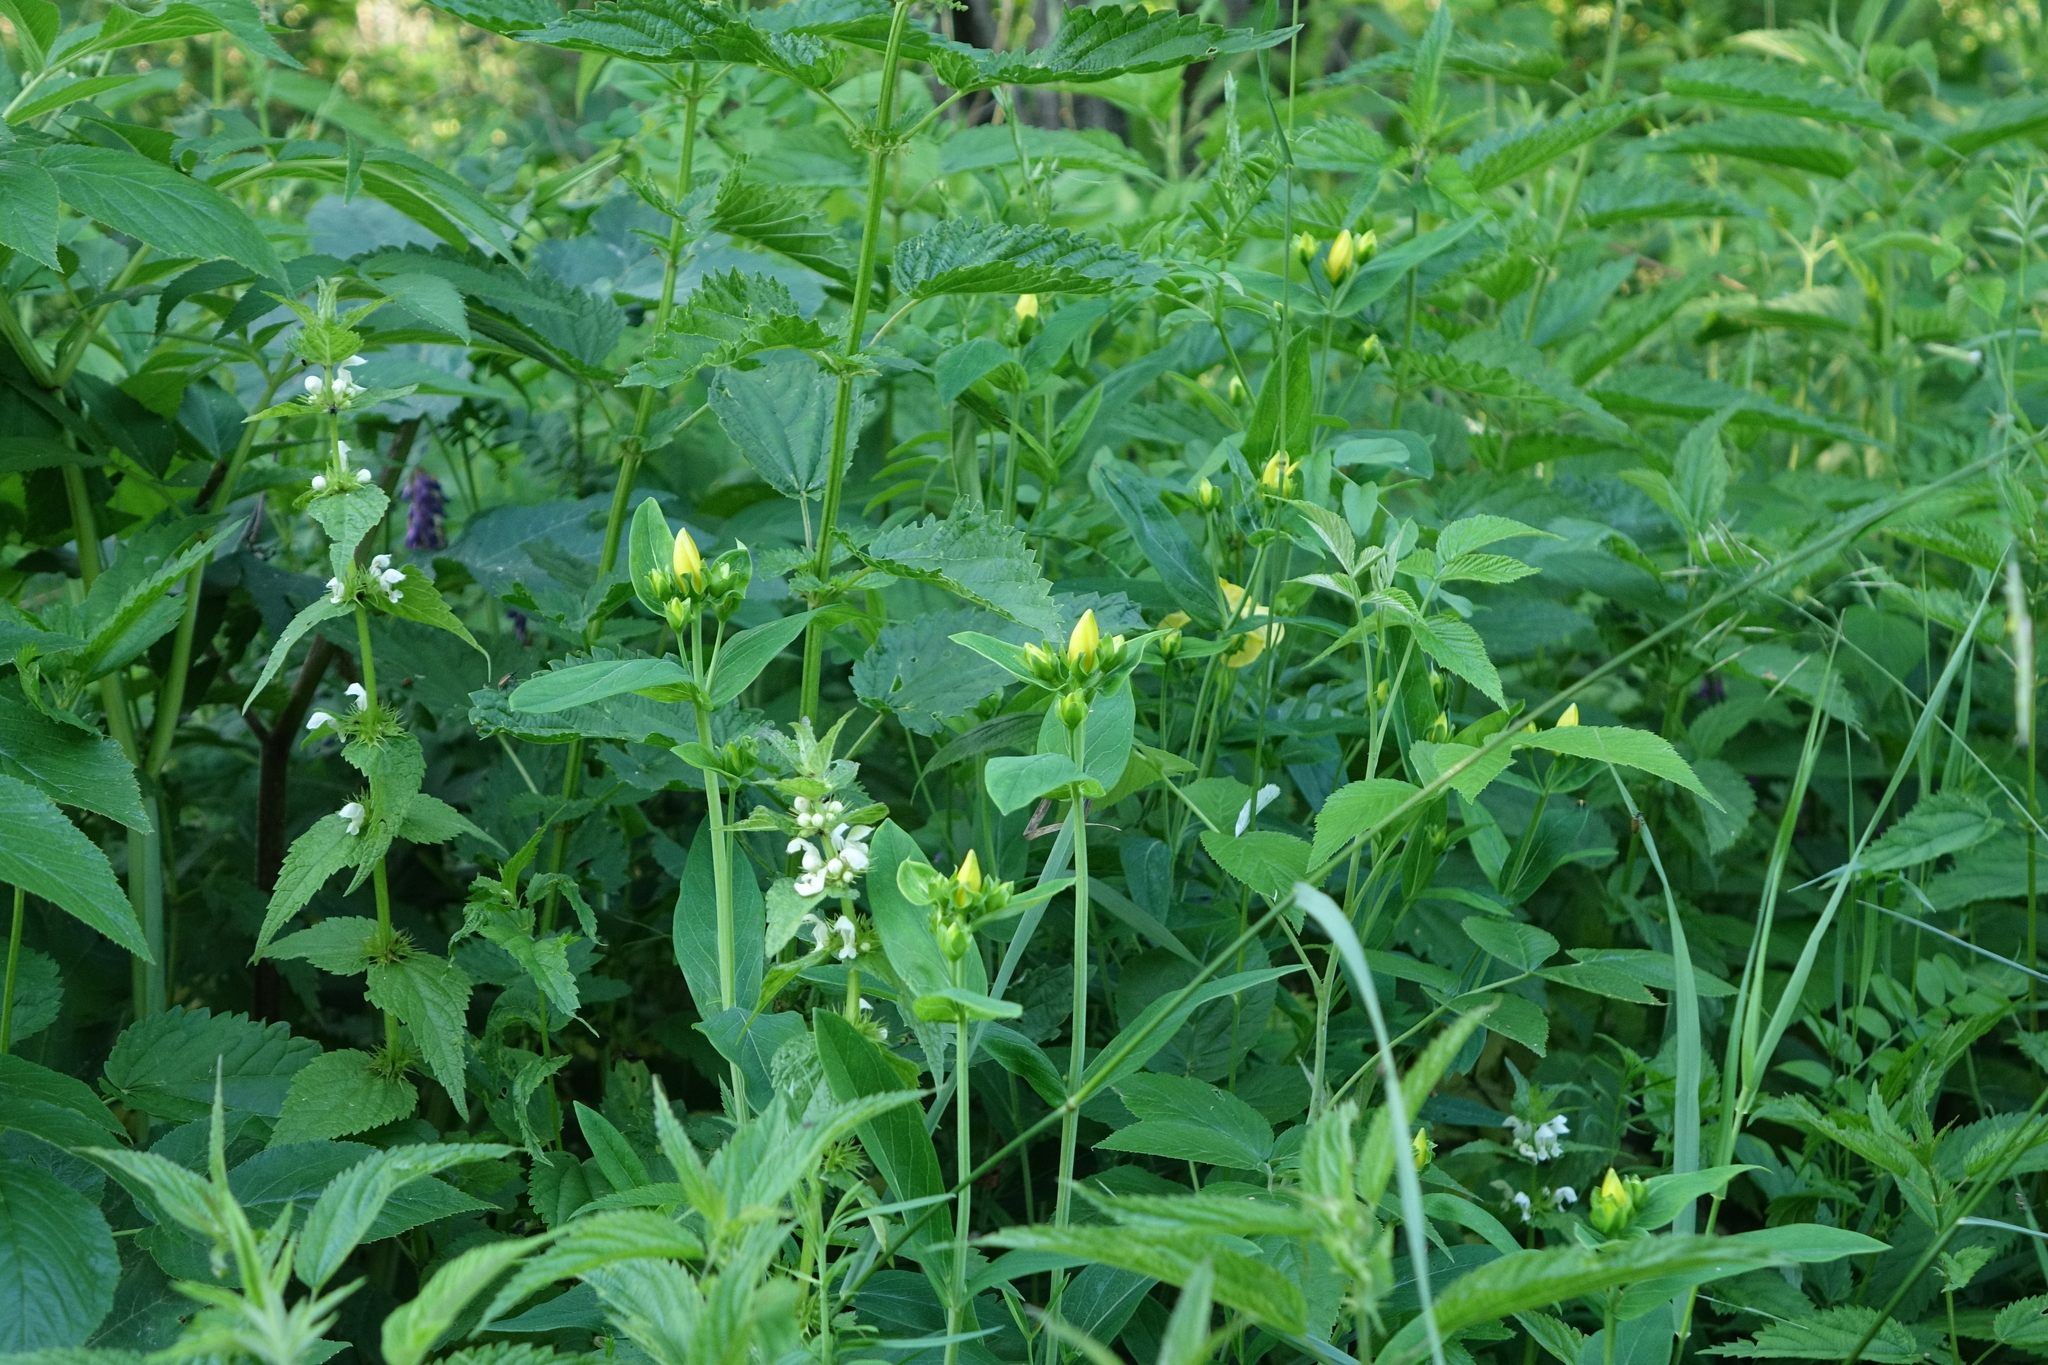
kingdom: Plantae
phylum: Tracheophyta
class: Magnoliopsida
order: Lamiales
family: Lamiaceae
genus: Lamium
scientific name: Lamium album
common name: White dead-nettle
